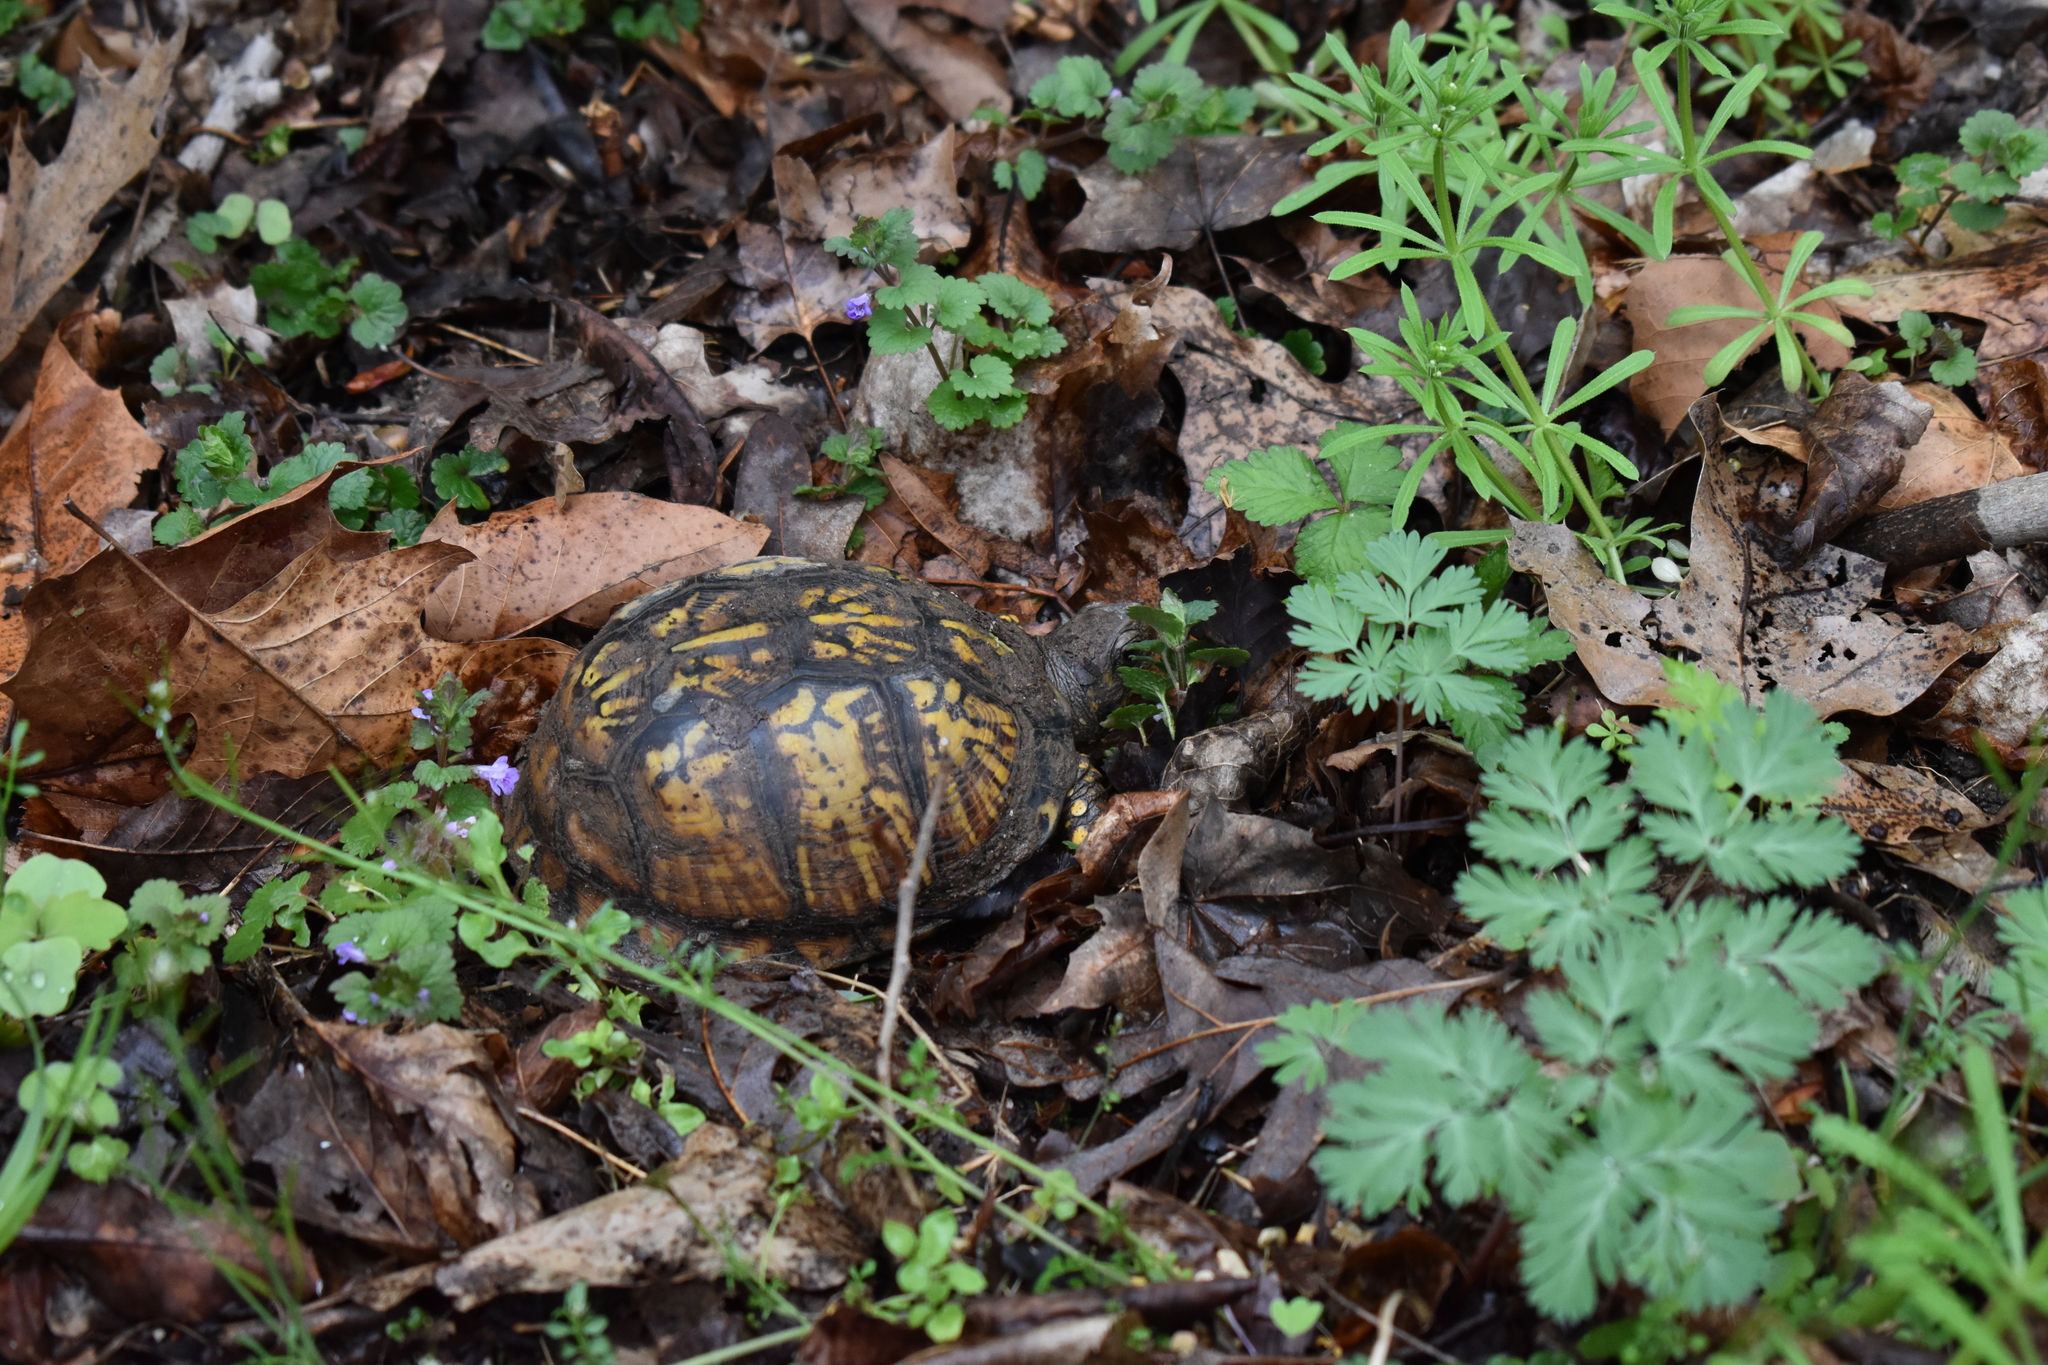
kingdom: Animalia
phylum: Chordata
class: Testudines
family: Emydidae
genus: Terrapene
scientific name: Terrapene carolina
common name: Common box turtle
